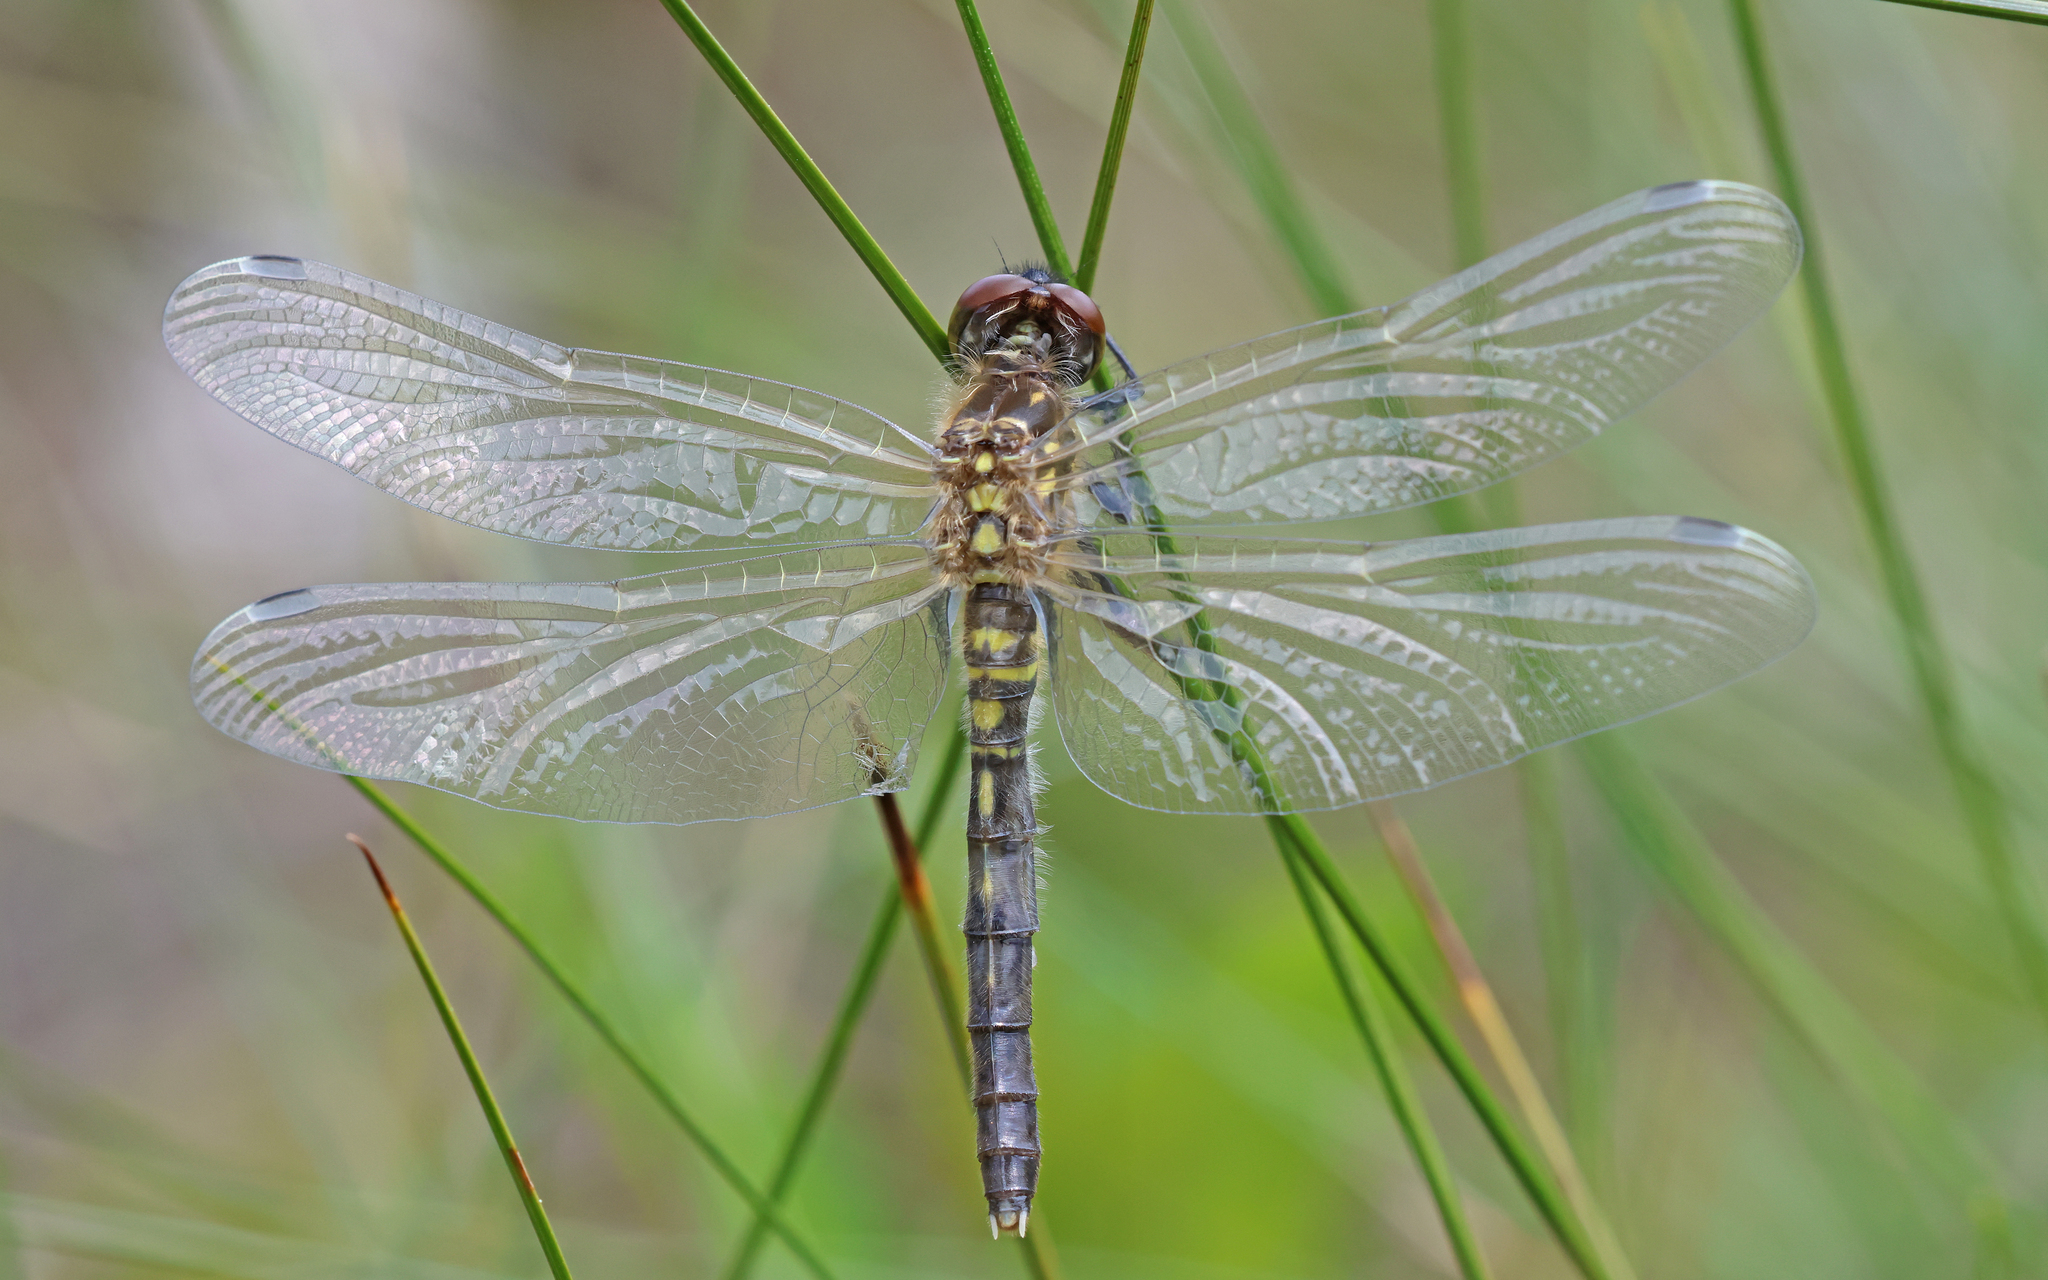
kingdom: Animalia
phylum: Arthropoda
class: Insecta
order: Odonata
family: Libellulidae
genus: Leucorrhinia
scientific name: Leucorrhinia albifrons
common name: Dark whiteface
